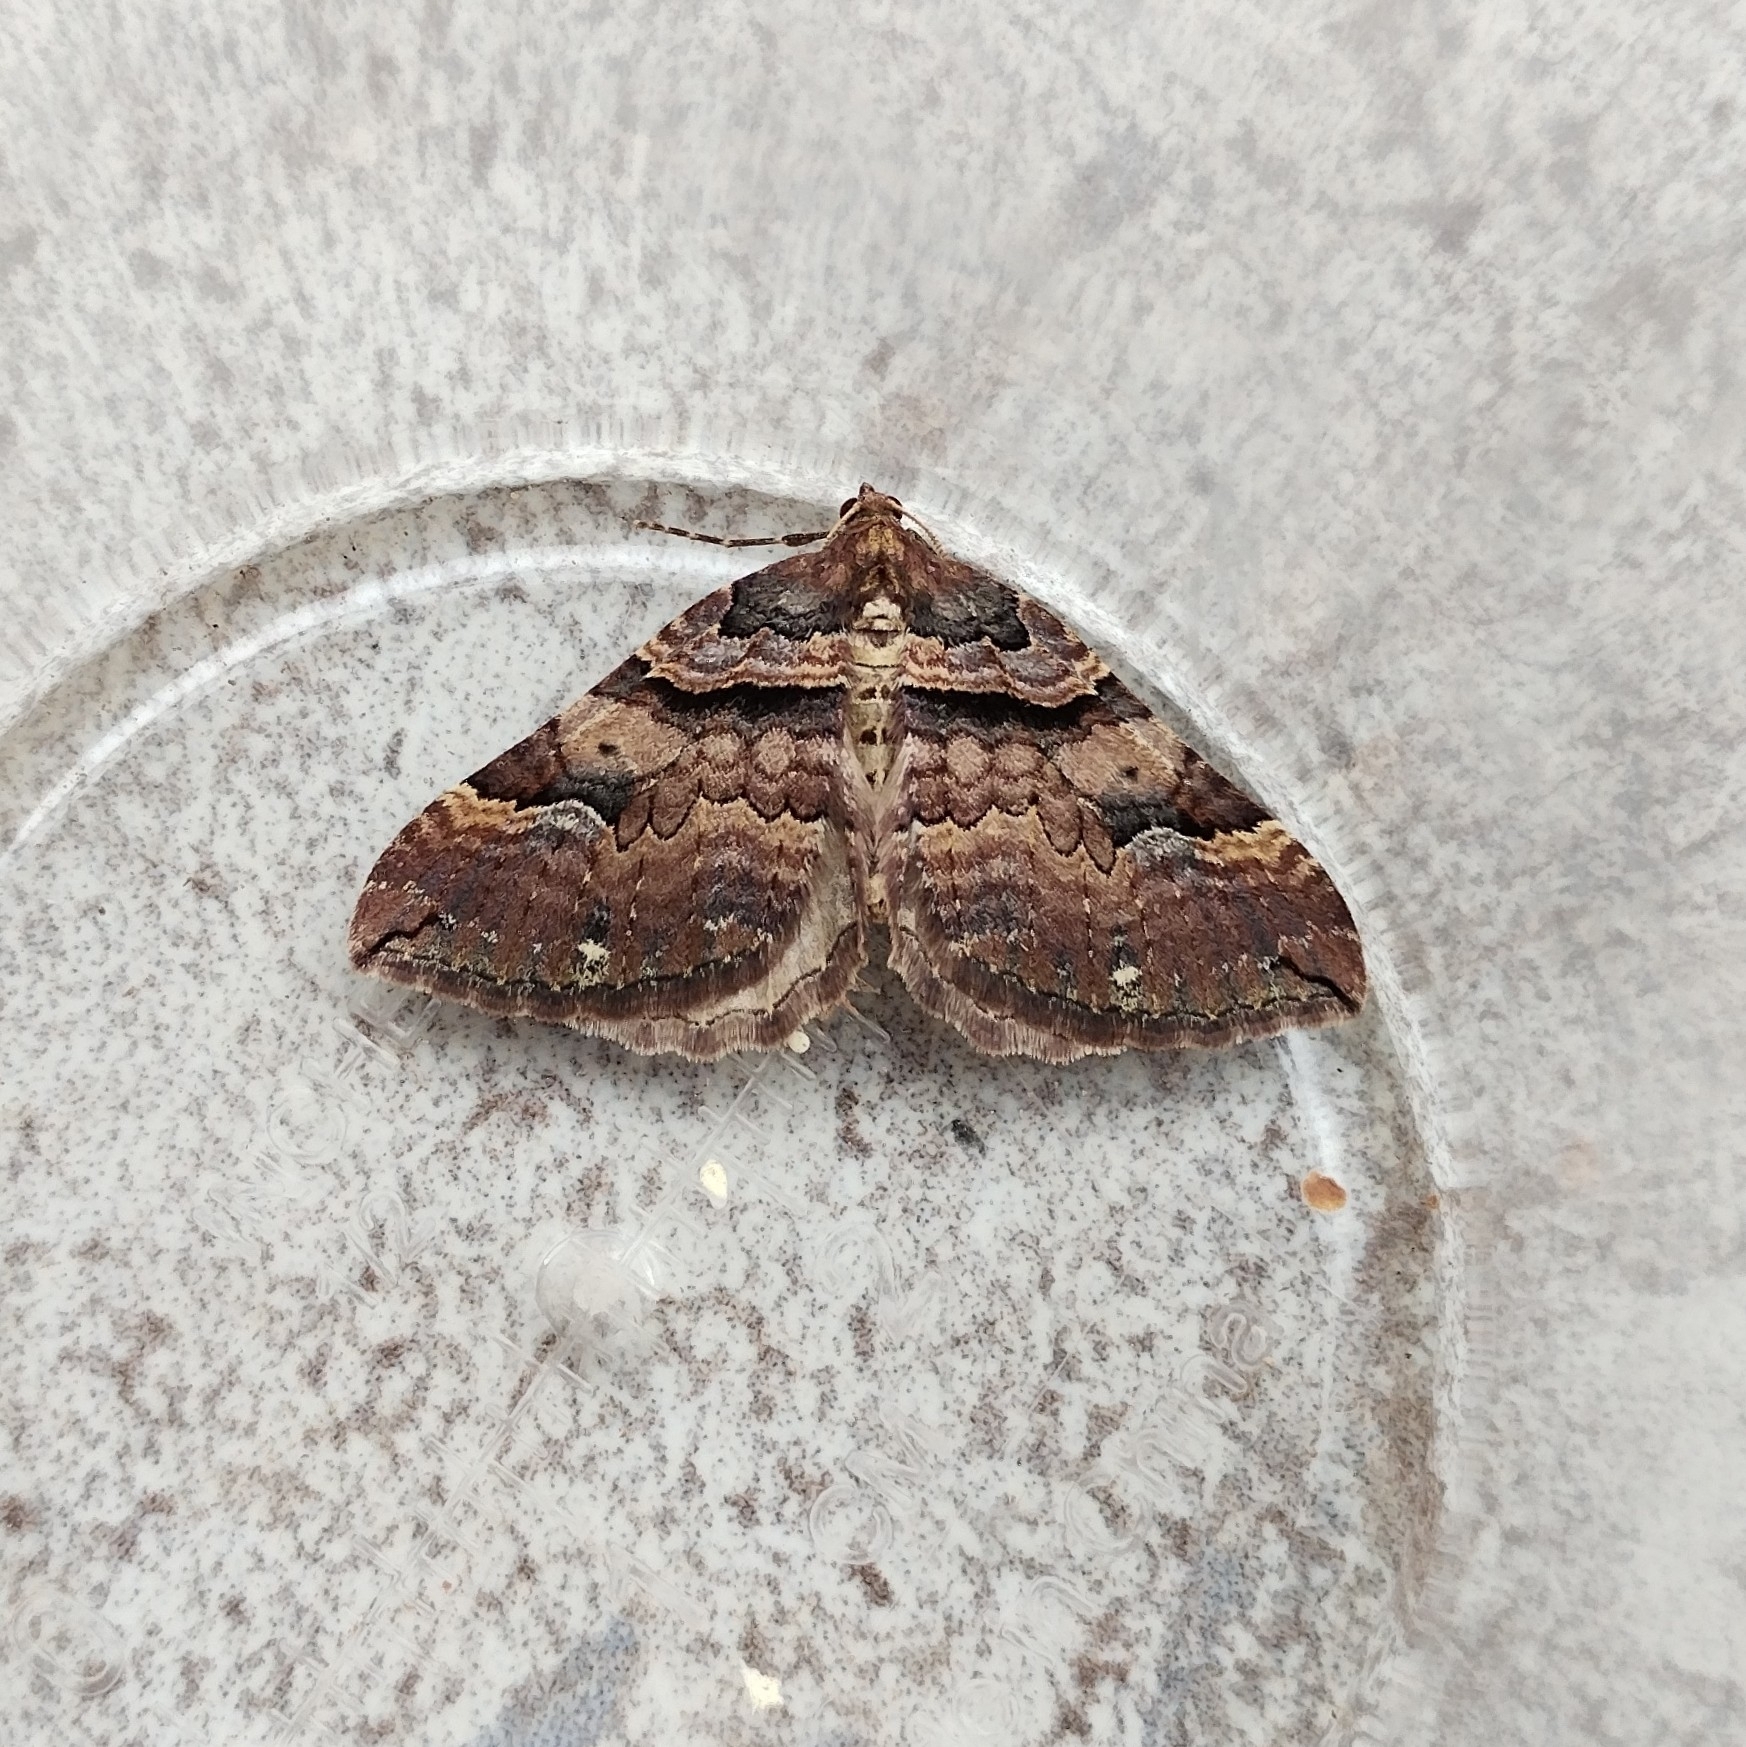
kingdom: Animalia
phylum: Arthropoda
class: Insecta
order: Lepidoptera
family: Geometridae
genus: Anticlea
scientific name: Anticlea badiata
